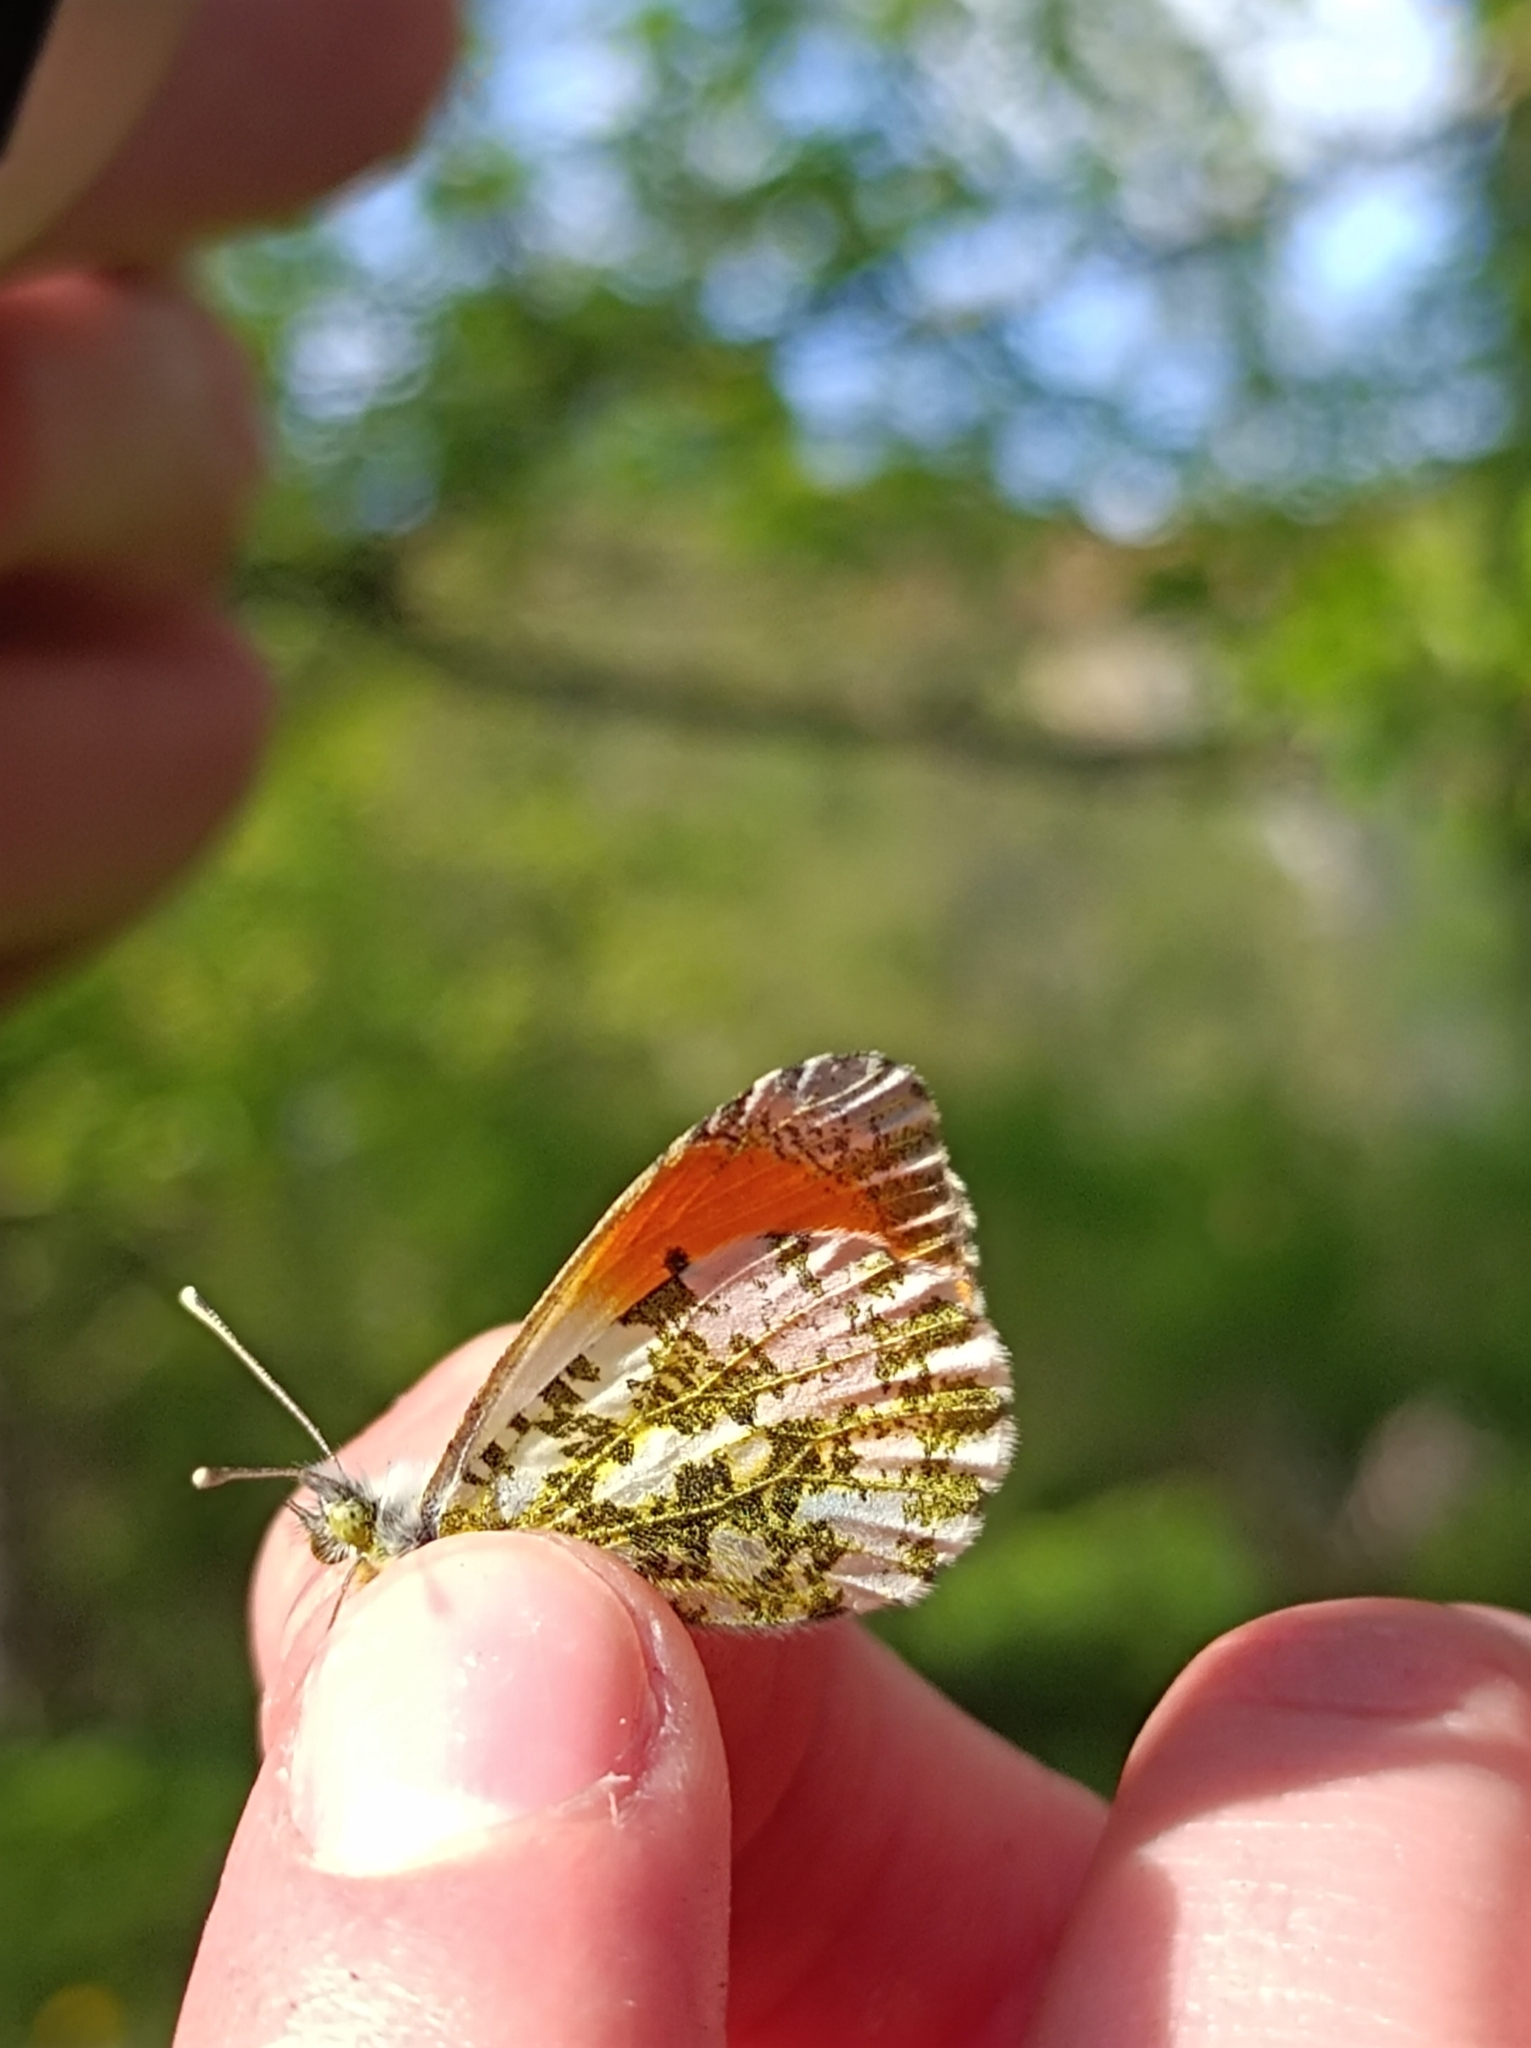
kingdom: Animalia
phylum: Arthropoda
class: Insecta
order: Lepidoptera
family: Pieridae
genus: Anthocharis
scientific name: Anthocharis cardamines
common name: Orange-tip
